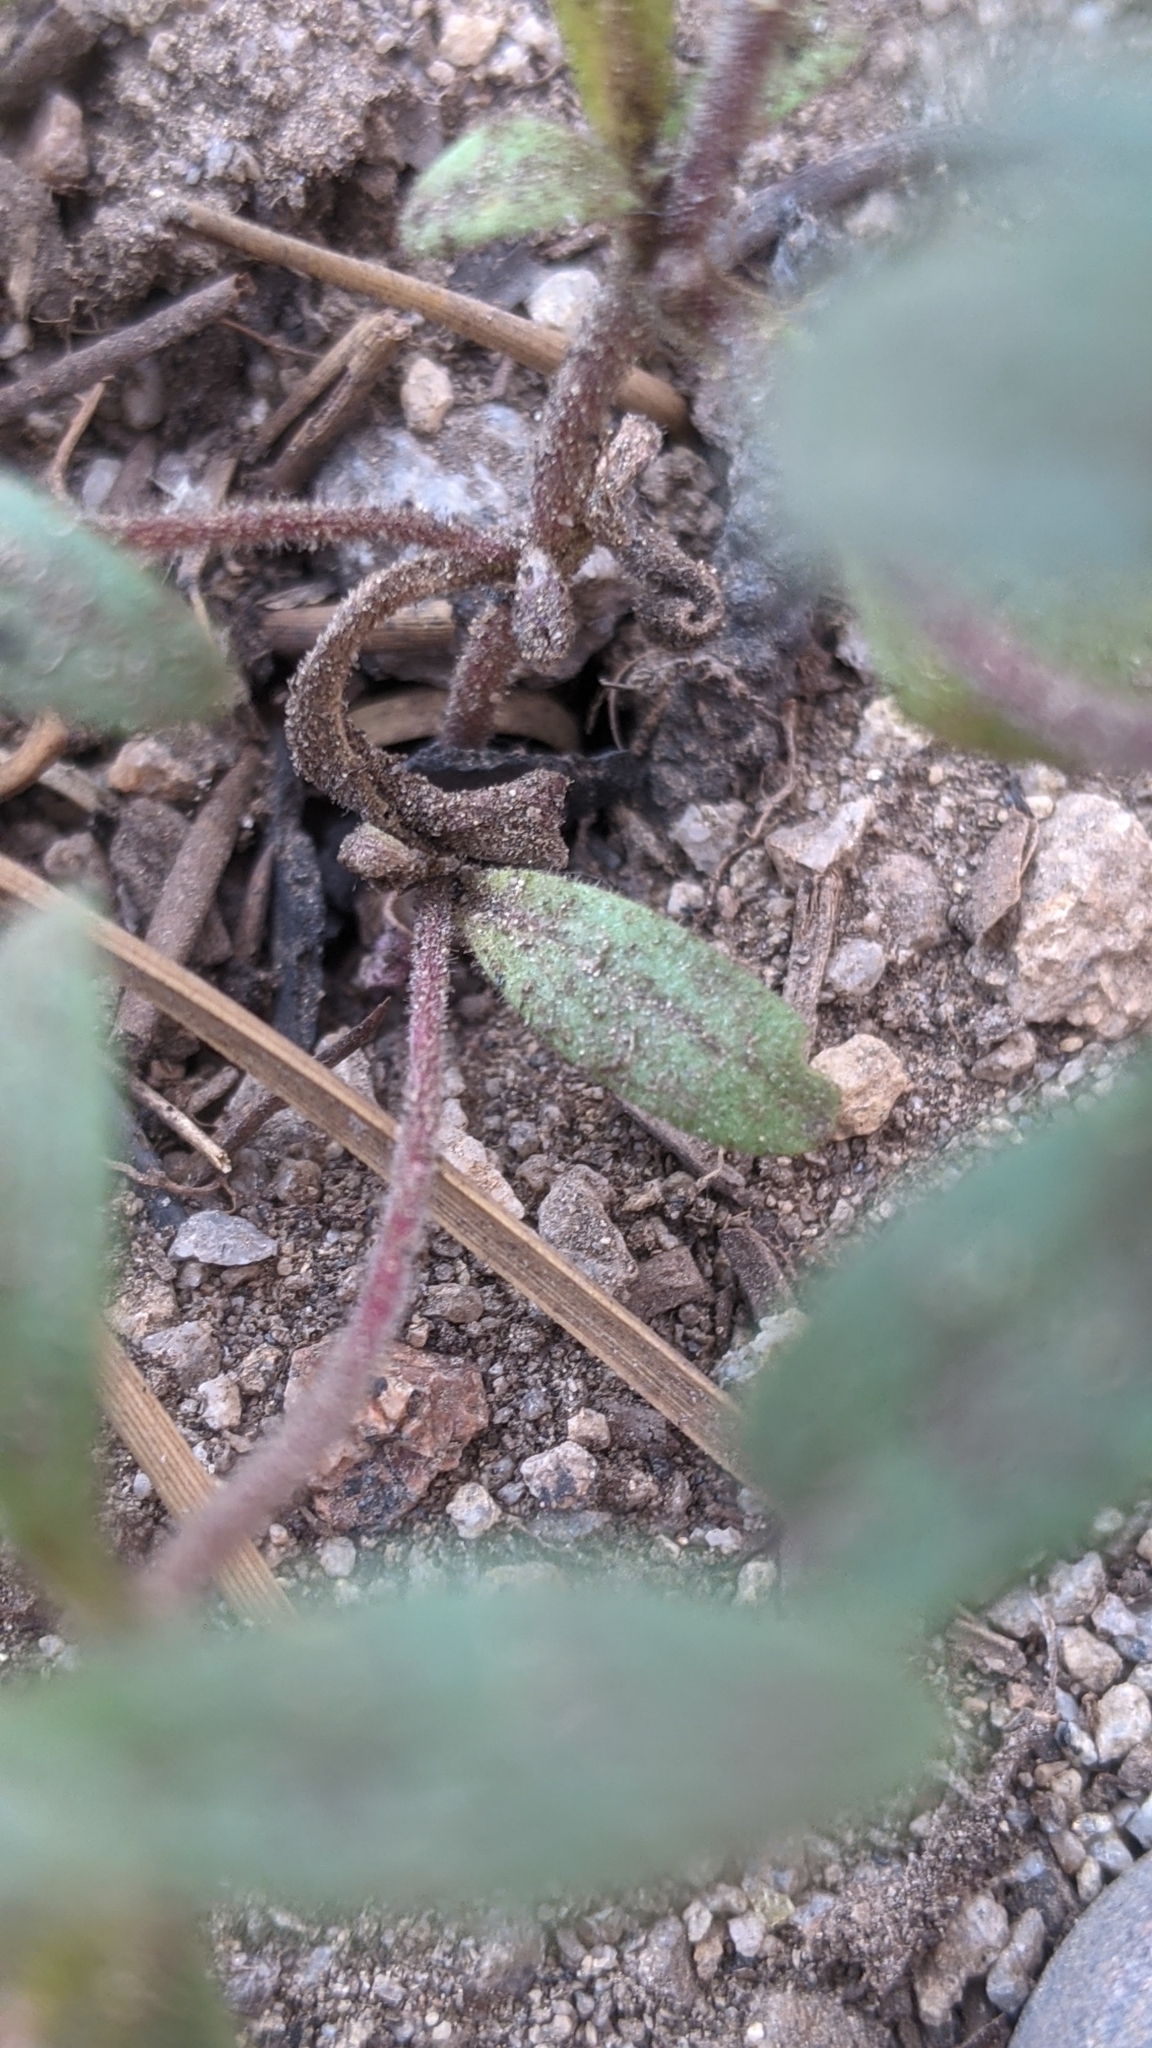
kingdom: Plantae
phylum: Tracheophyta
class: Magnoliopsida
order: Lamiales
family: Phrymaceae
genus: Diplacus
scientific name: Diplacus bicolor
